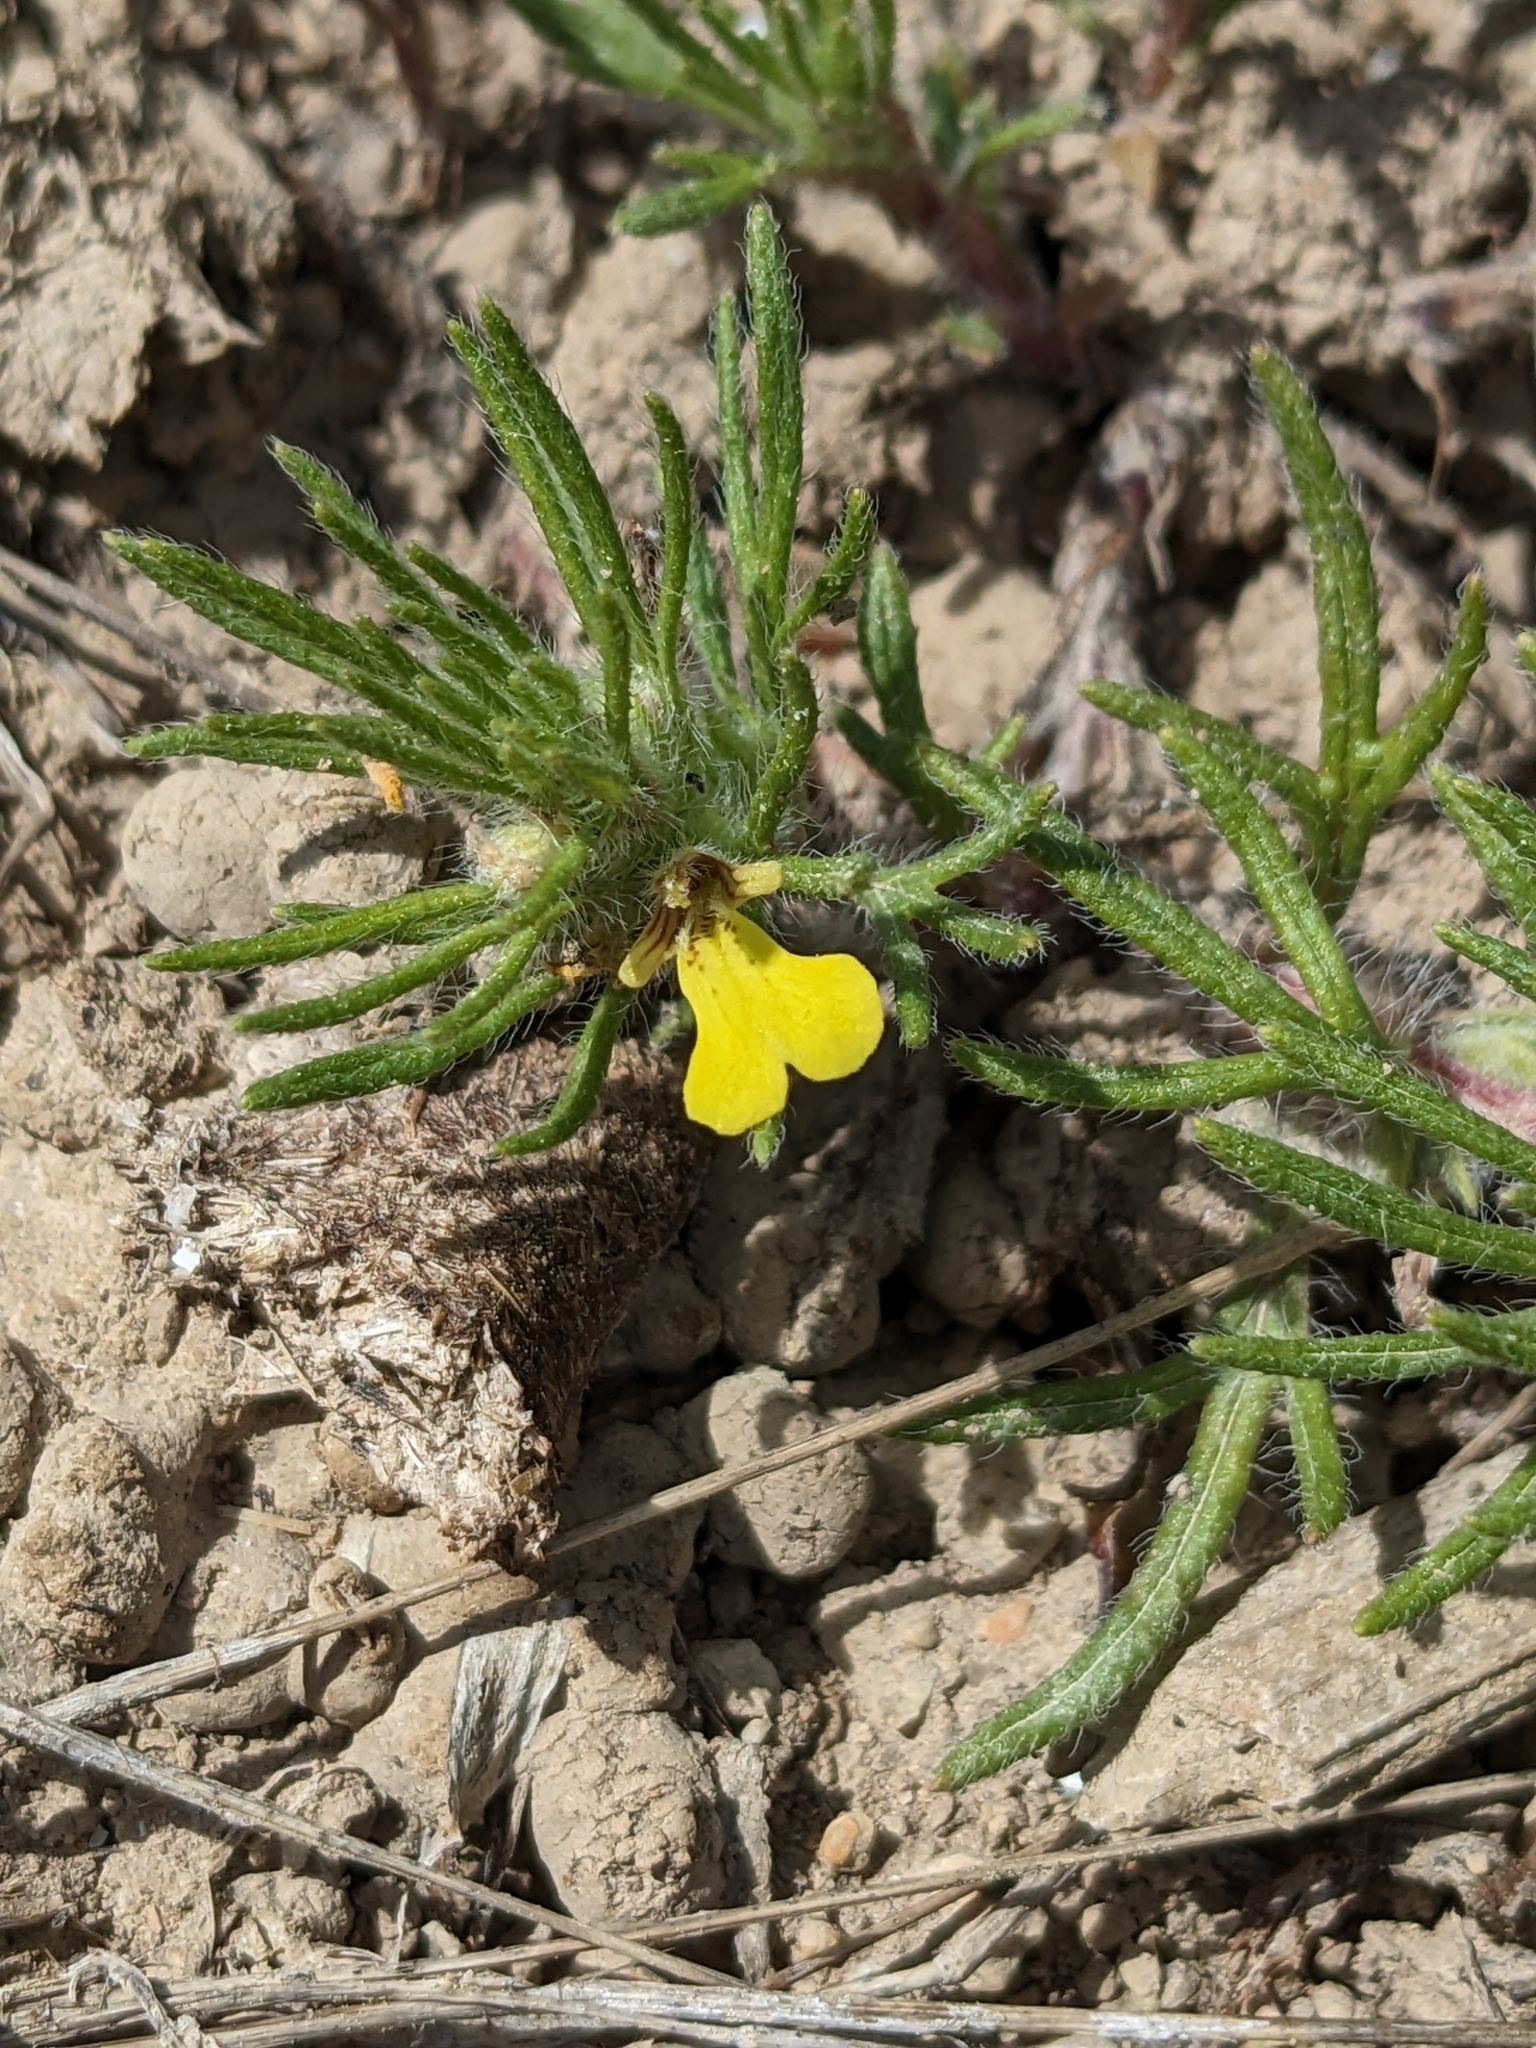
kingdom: Plantae
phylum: Tracheophyta
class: Magnoliopsida
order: Lamiales
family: Lamiaceae
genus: Ajuga
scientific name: Ajuga chamaepitys
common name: Ground-pine
